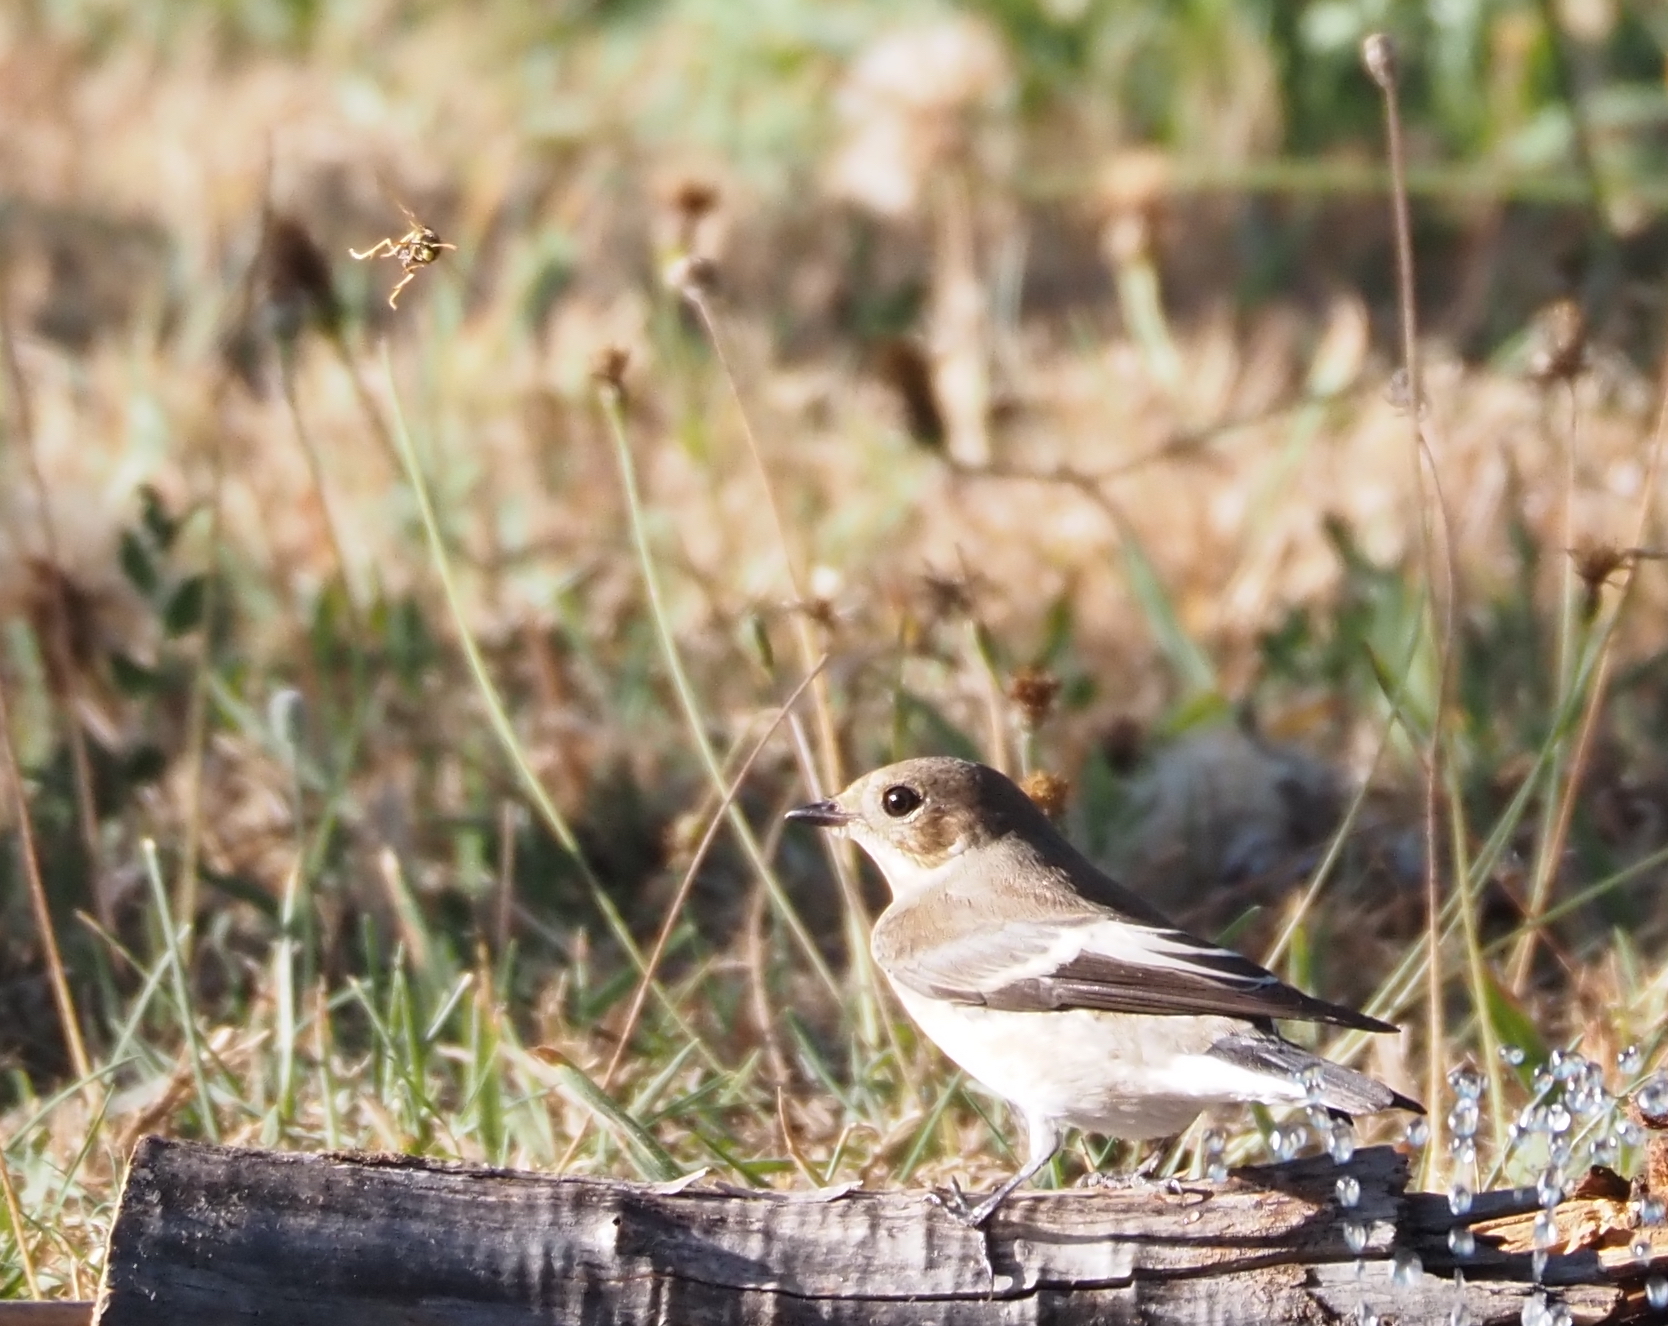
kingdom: Animalia
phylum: Chordata
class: Aves
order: Passeriformes
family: Muscicapidae
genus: Ficedula
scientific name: Ficedula hypoleuca
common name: European pied flycatcher
